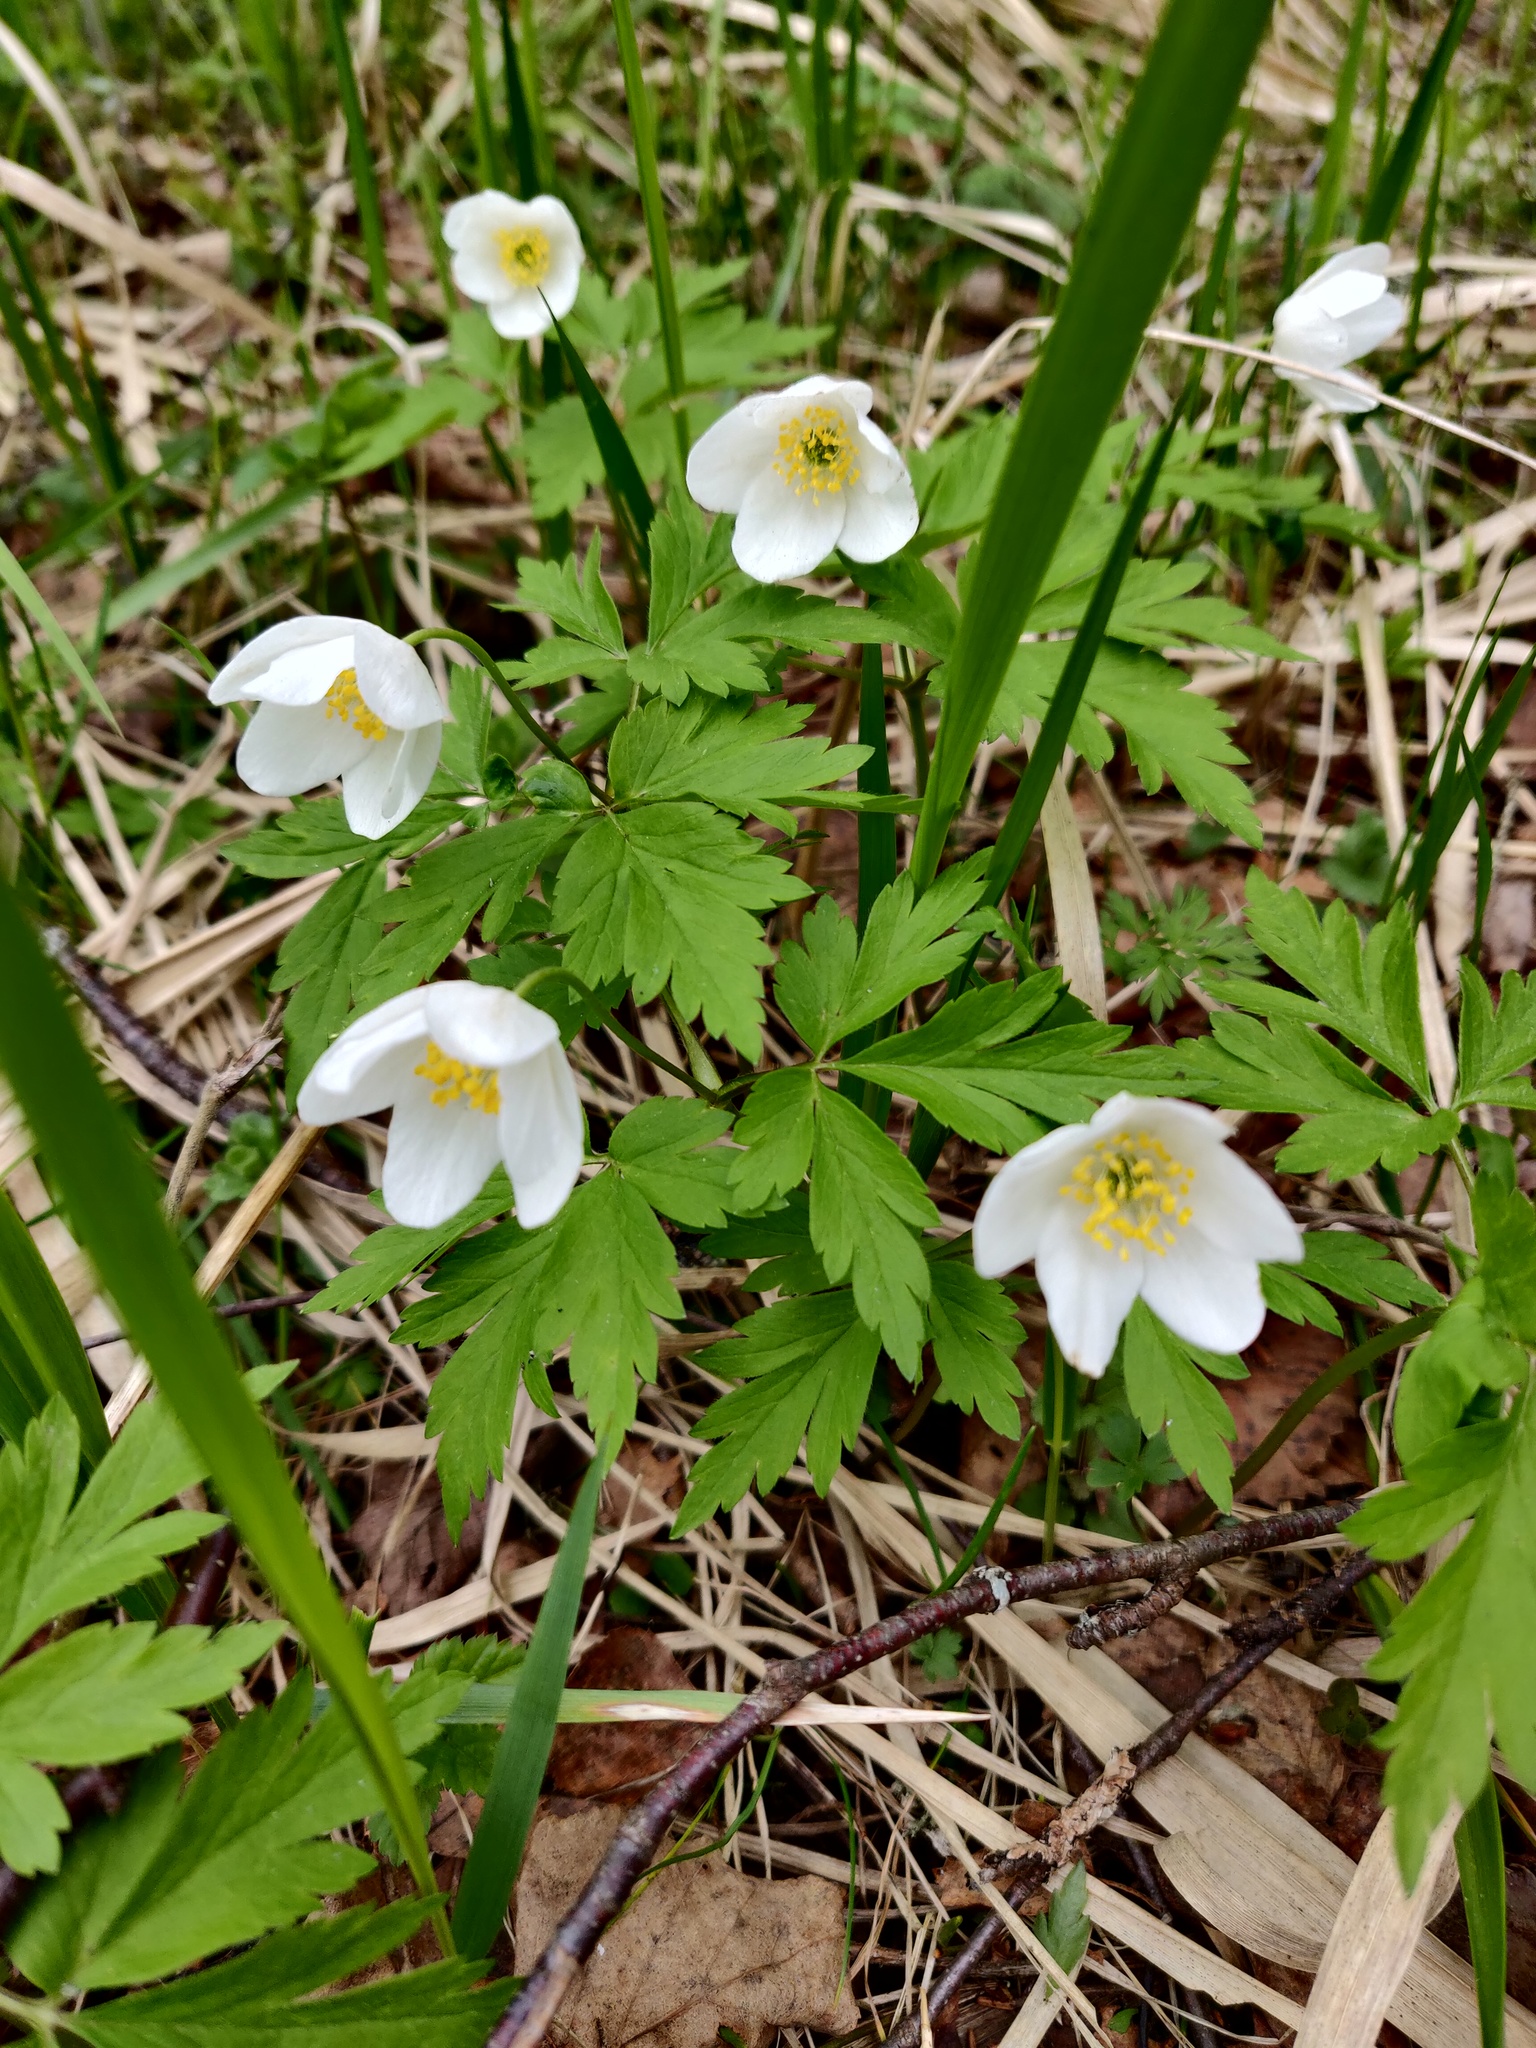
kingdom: Plantae
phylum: Tracheophyta
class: Magnoliopsida
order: Ranunculales
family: Ranunculaceae
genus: Anemone
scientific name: Anemone nemorosa
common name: Wood anemone
